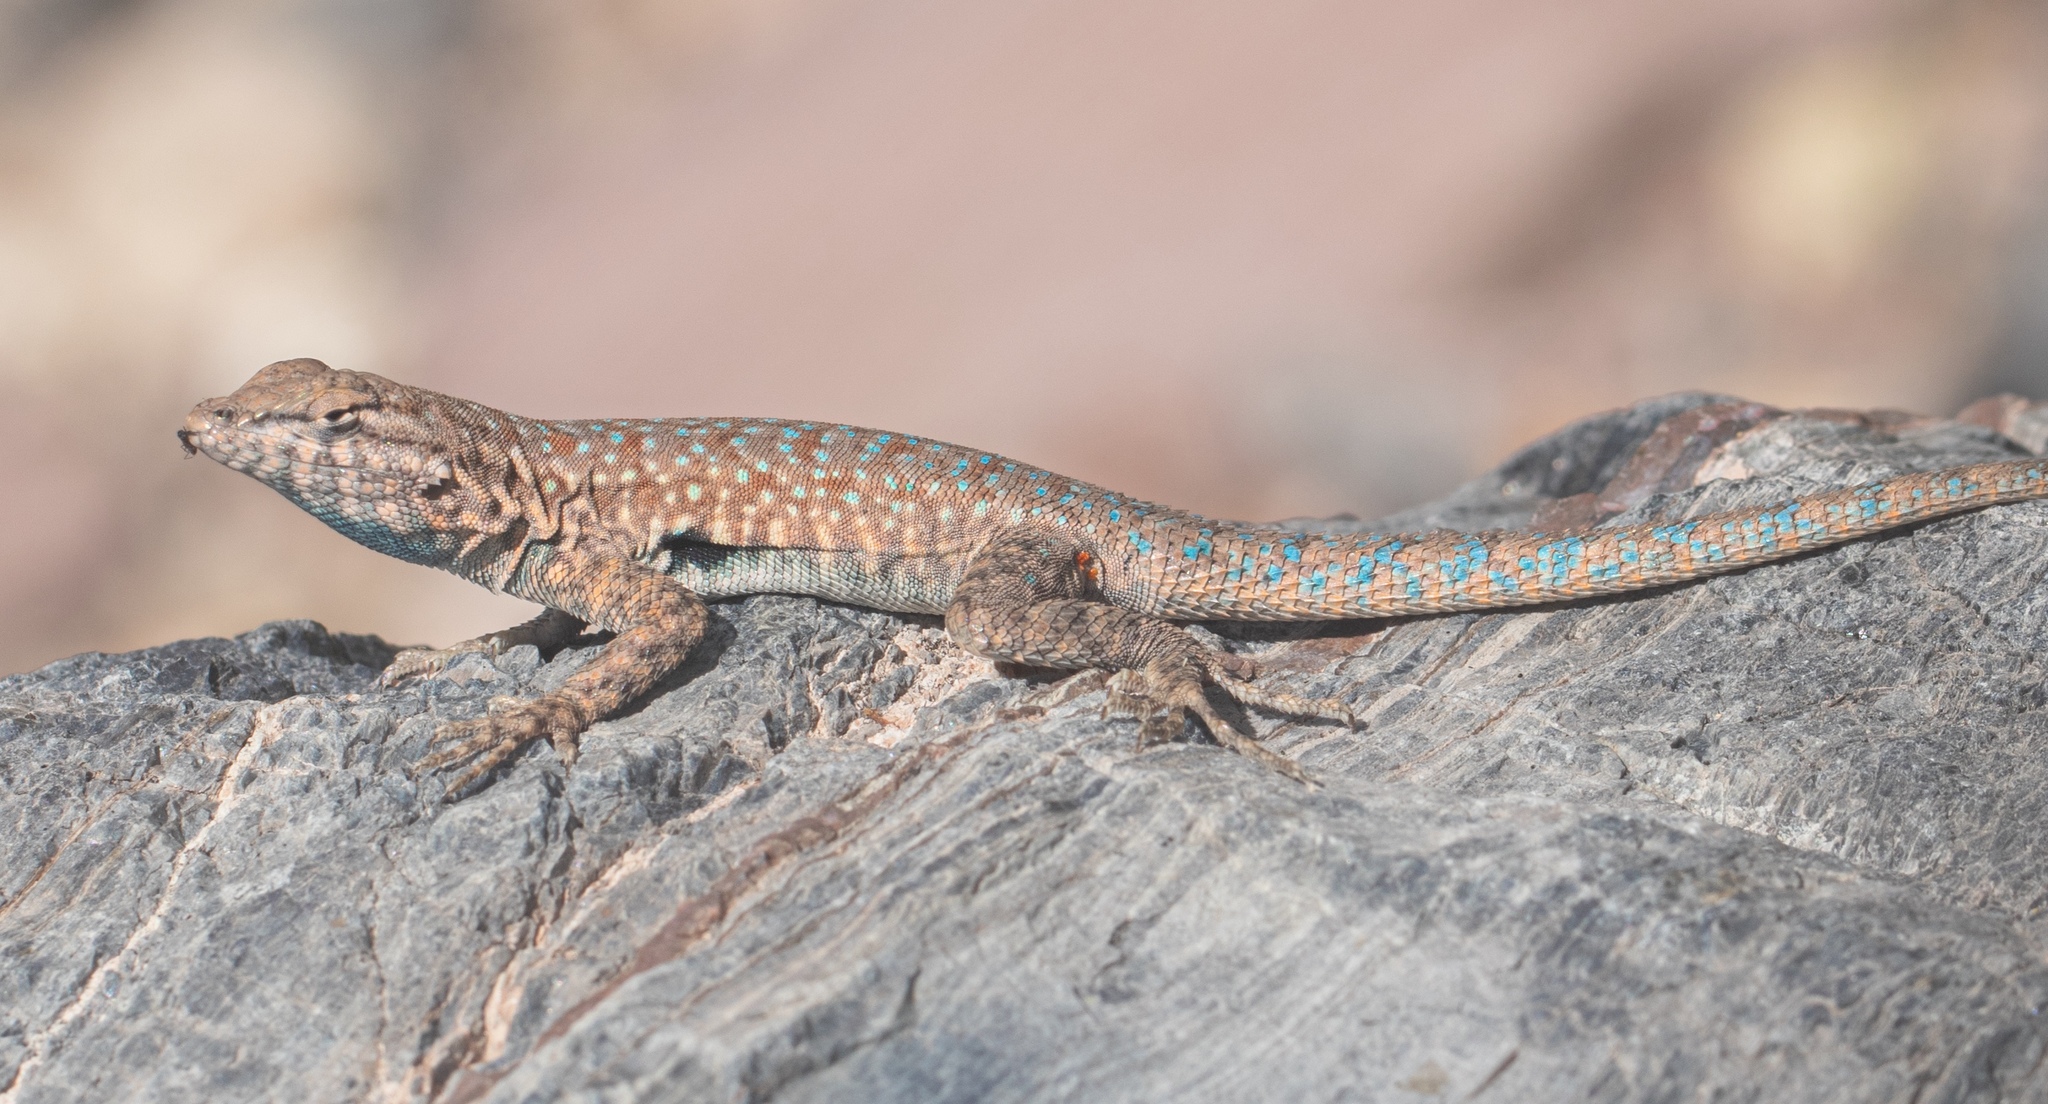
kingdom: Animalia
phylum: Chordata
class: Squamata
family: Phrynosomatidae
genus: Uta
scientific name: Uta stansburiana
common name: Side-blotched lizard
